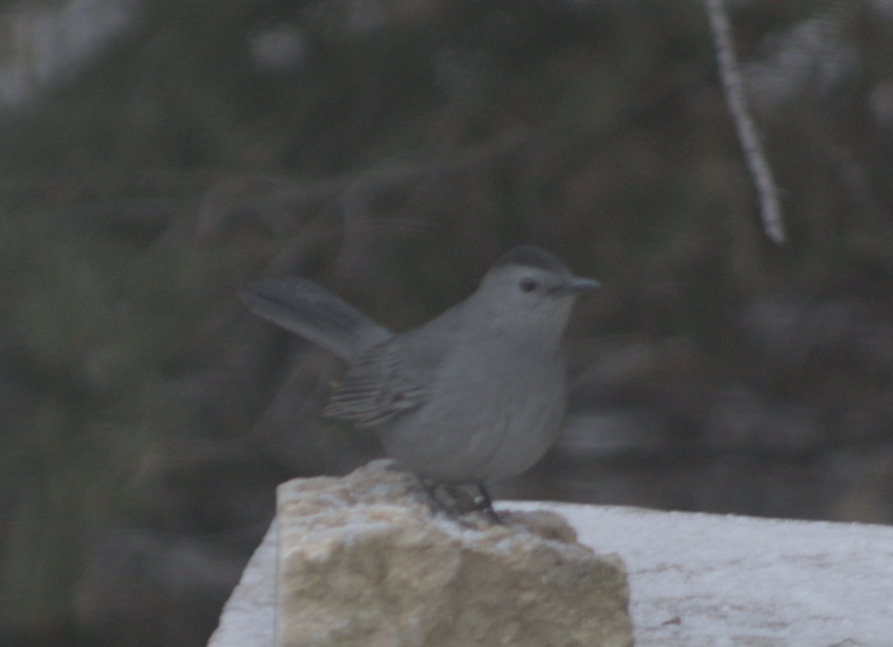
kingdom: Animalia
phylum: Chordata
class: Aves
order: Passeriformes
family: Mimidae
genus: Dumetella
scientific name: Dumetella carolinensis
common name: Gray catbird
